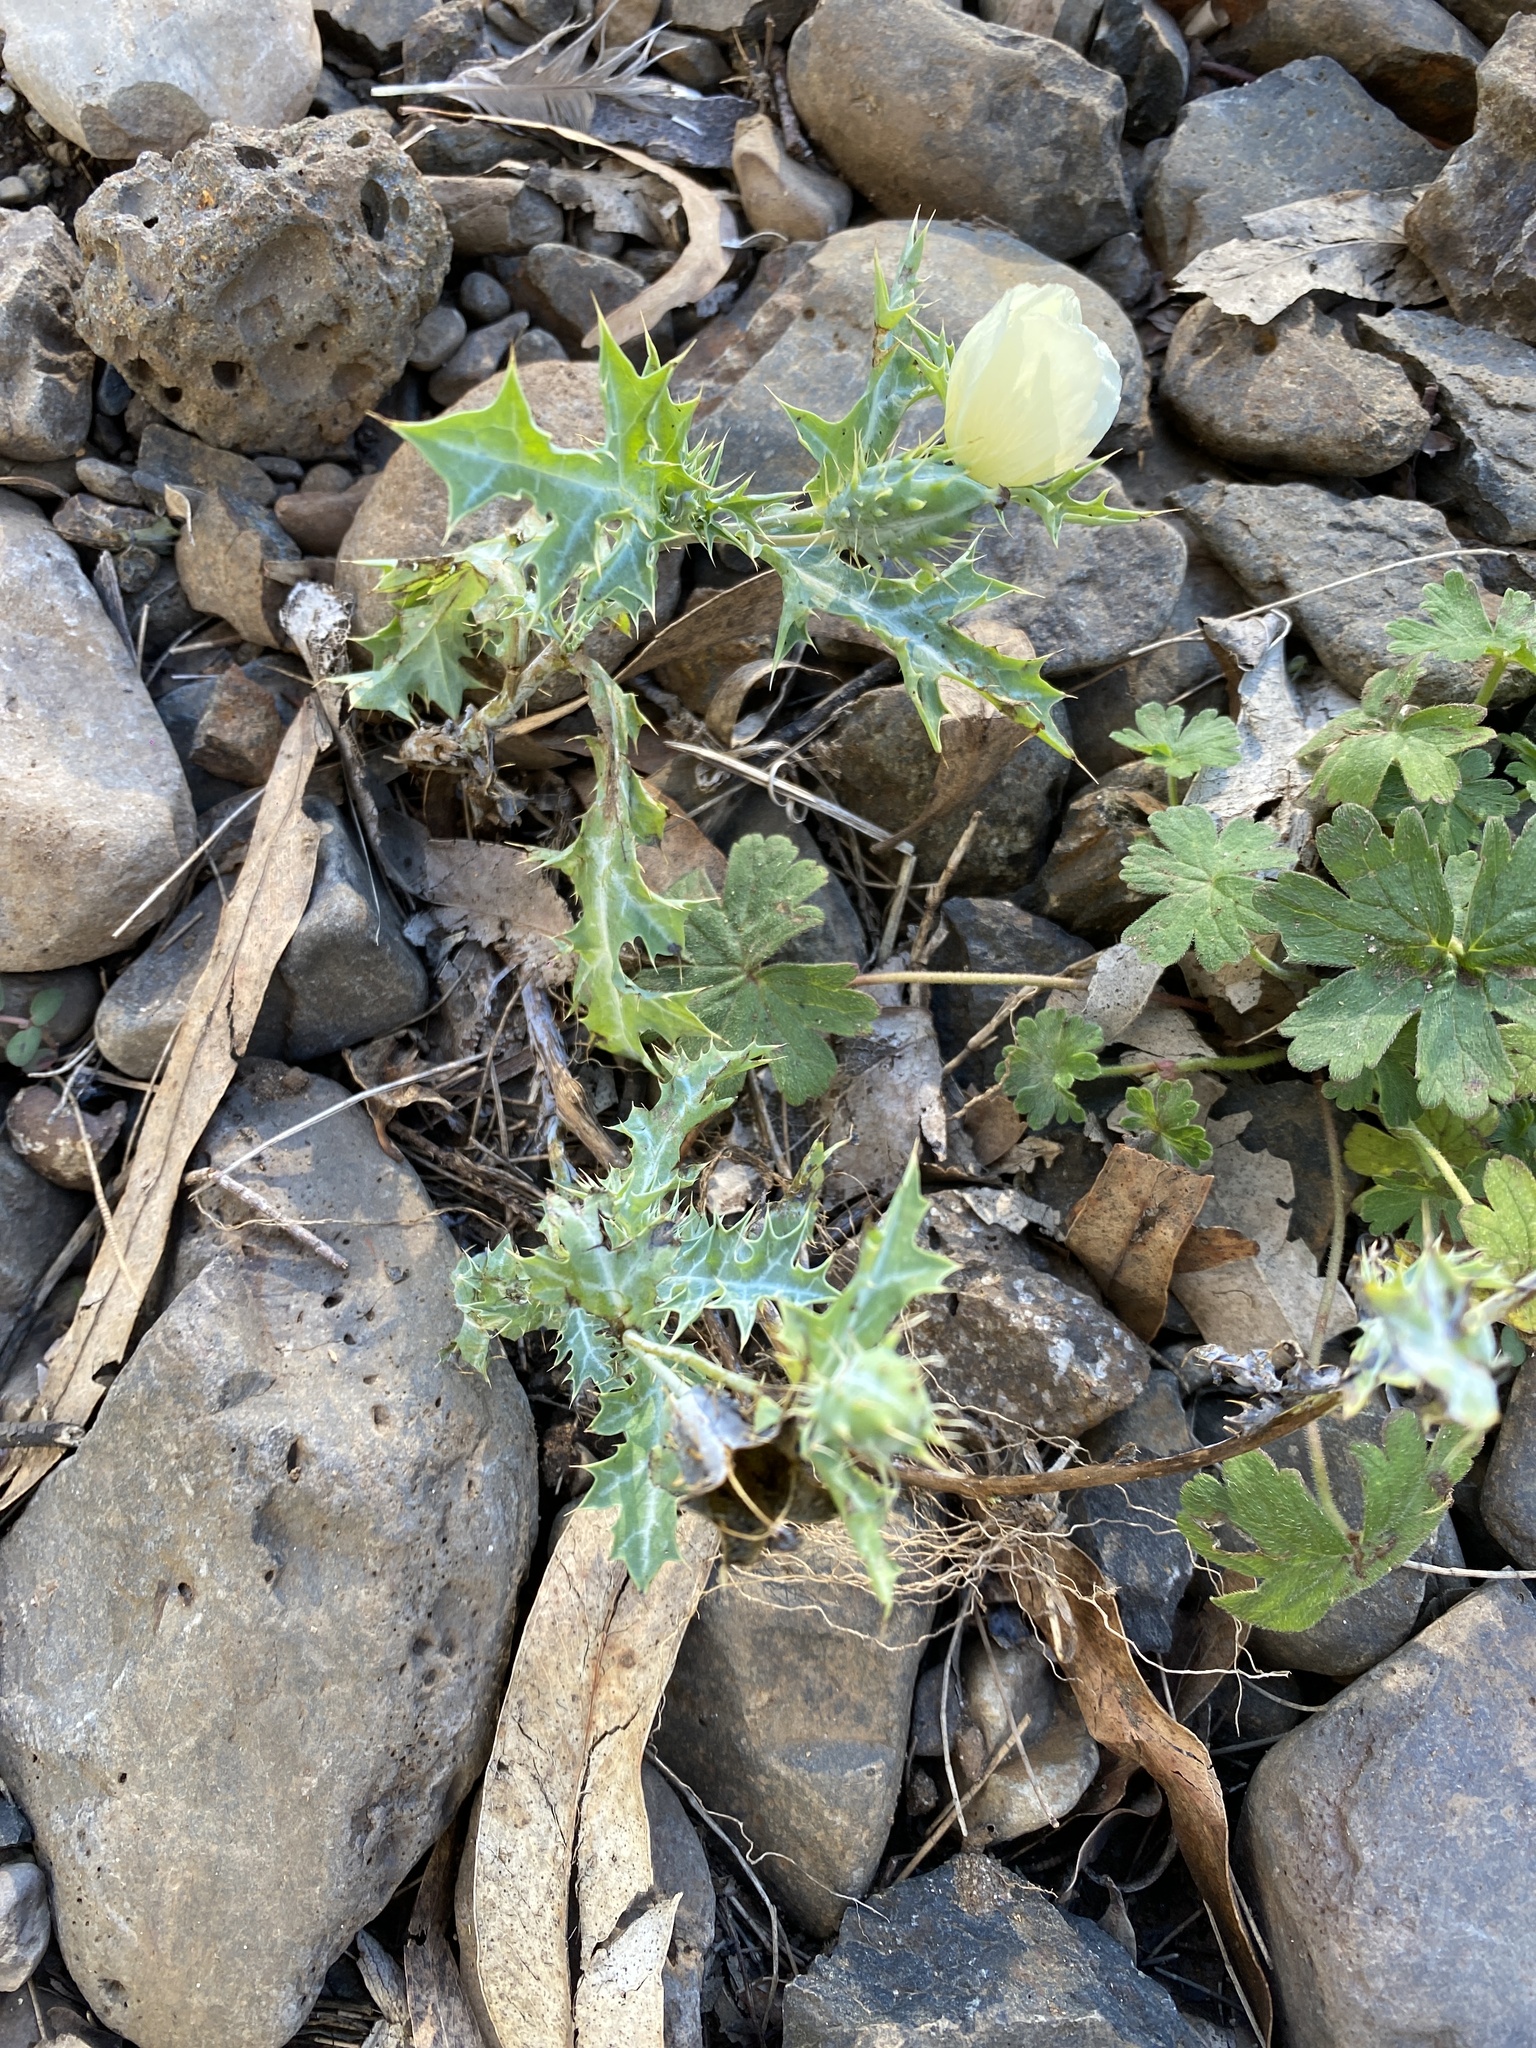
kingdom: Plantae
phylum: Tracheophyta
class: Magnoliopsida
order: Ranunculales
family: Papaveraceae
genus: Argemone
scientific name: Argemone ochroleuca
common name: White-flower mexican-poppy
